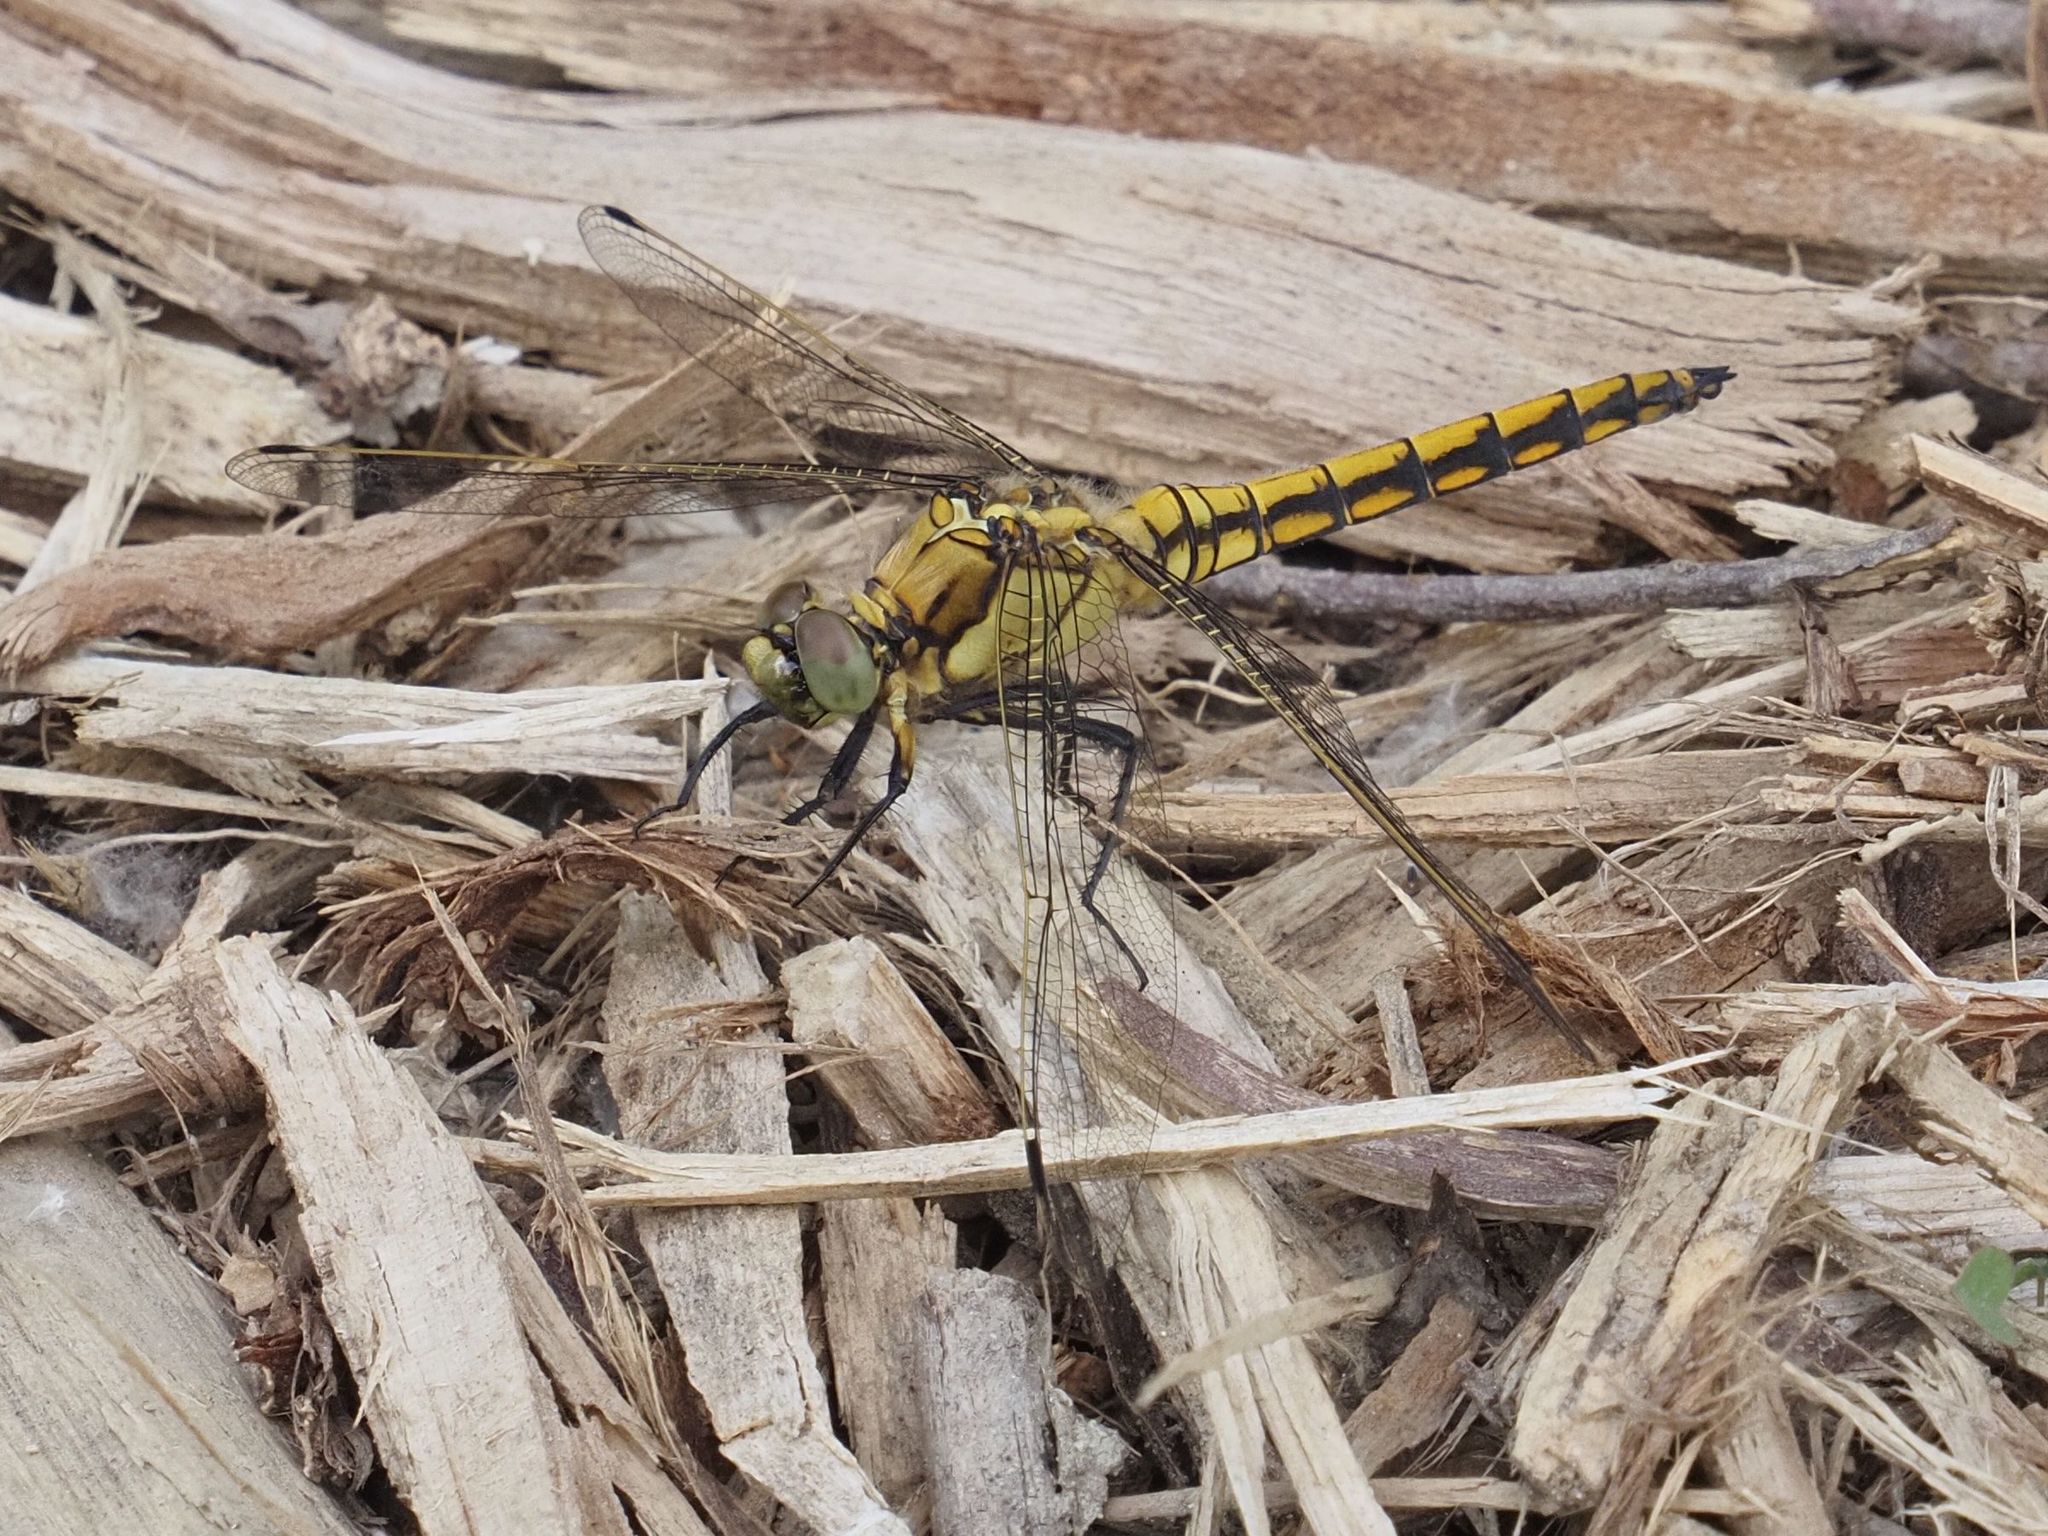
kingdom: Animalia
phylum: Arthropoda
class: Insecta
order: Odonata
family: Libellulidae
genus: Orthetrum
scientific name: Orthetrum cancellatum
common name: Black-tailed skimmer
